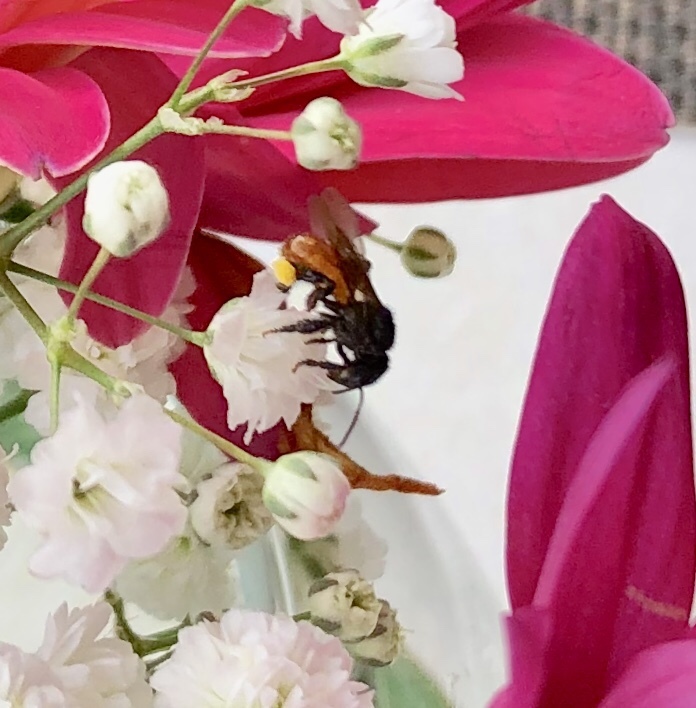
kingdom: Animalia
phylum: Arthropoda
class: Insecta
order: Hymenoptera
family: Apidae
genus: Trigona
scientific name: Trigona fulviventris
